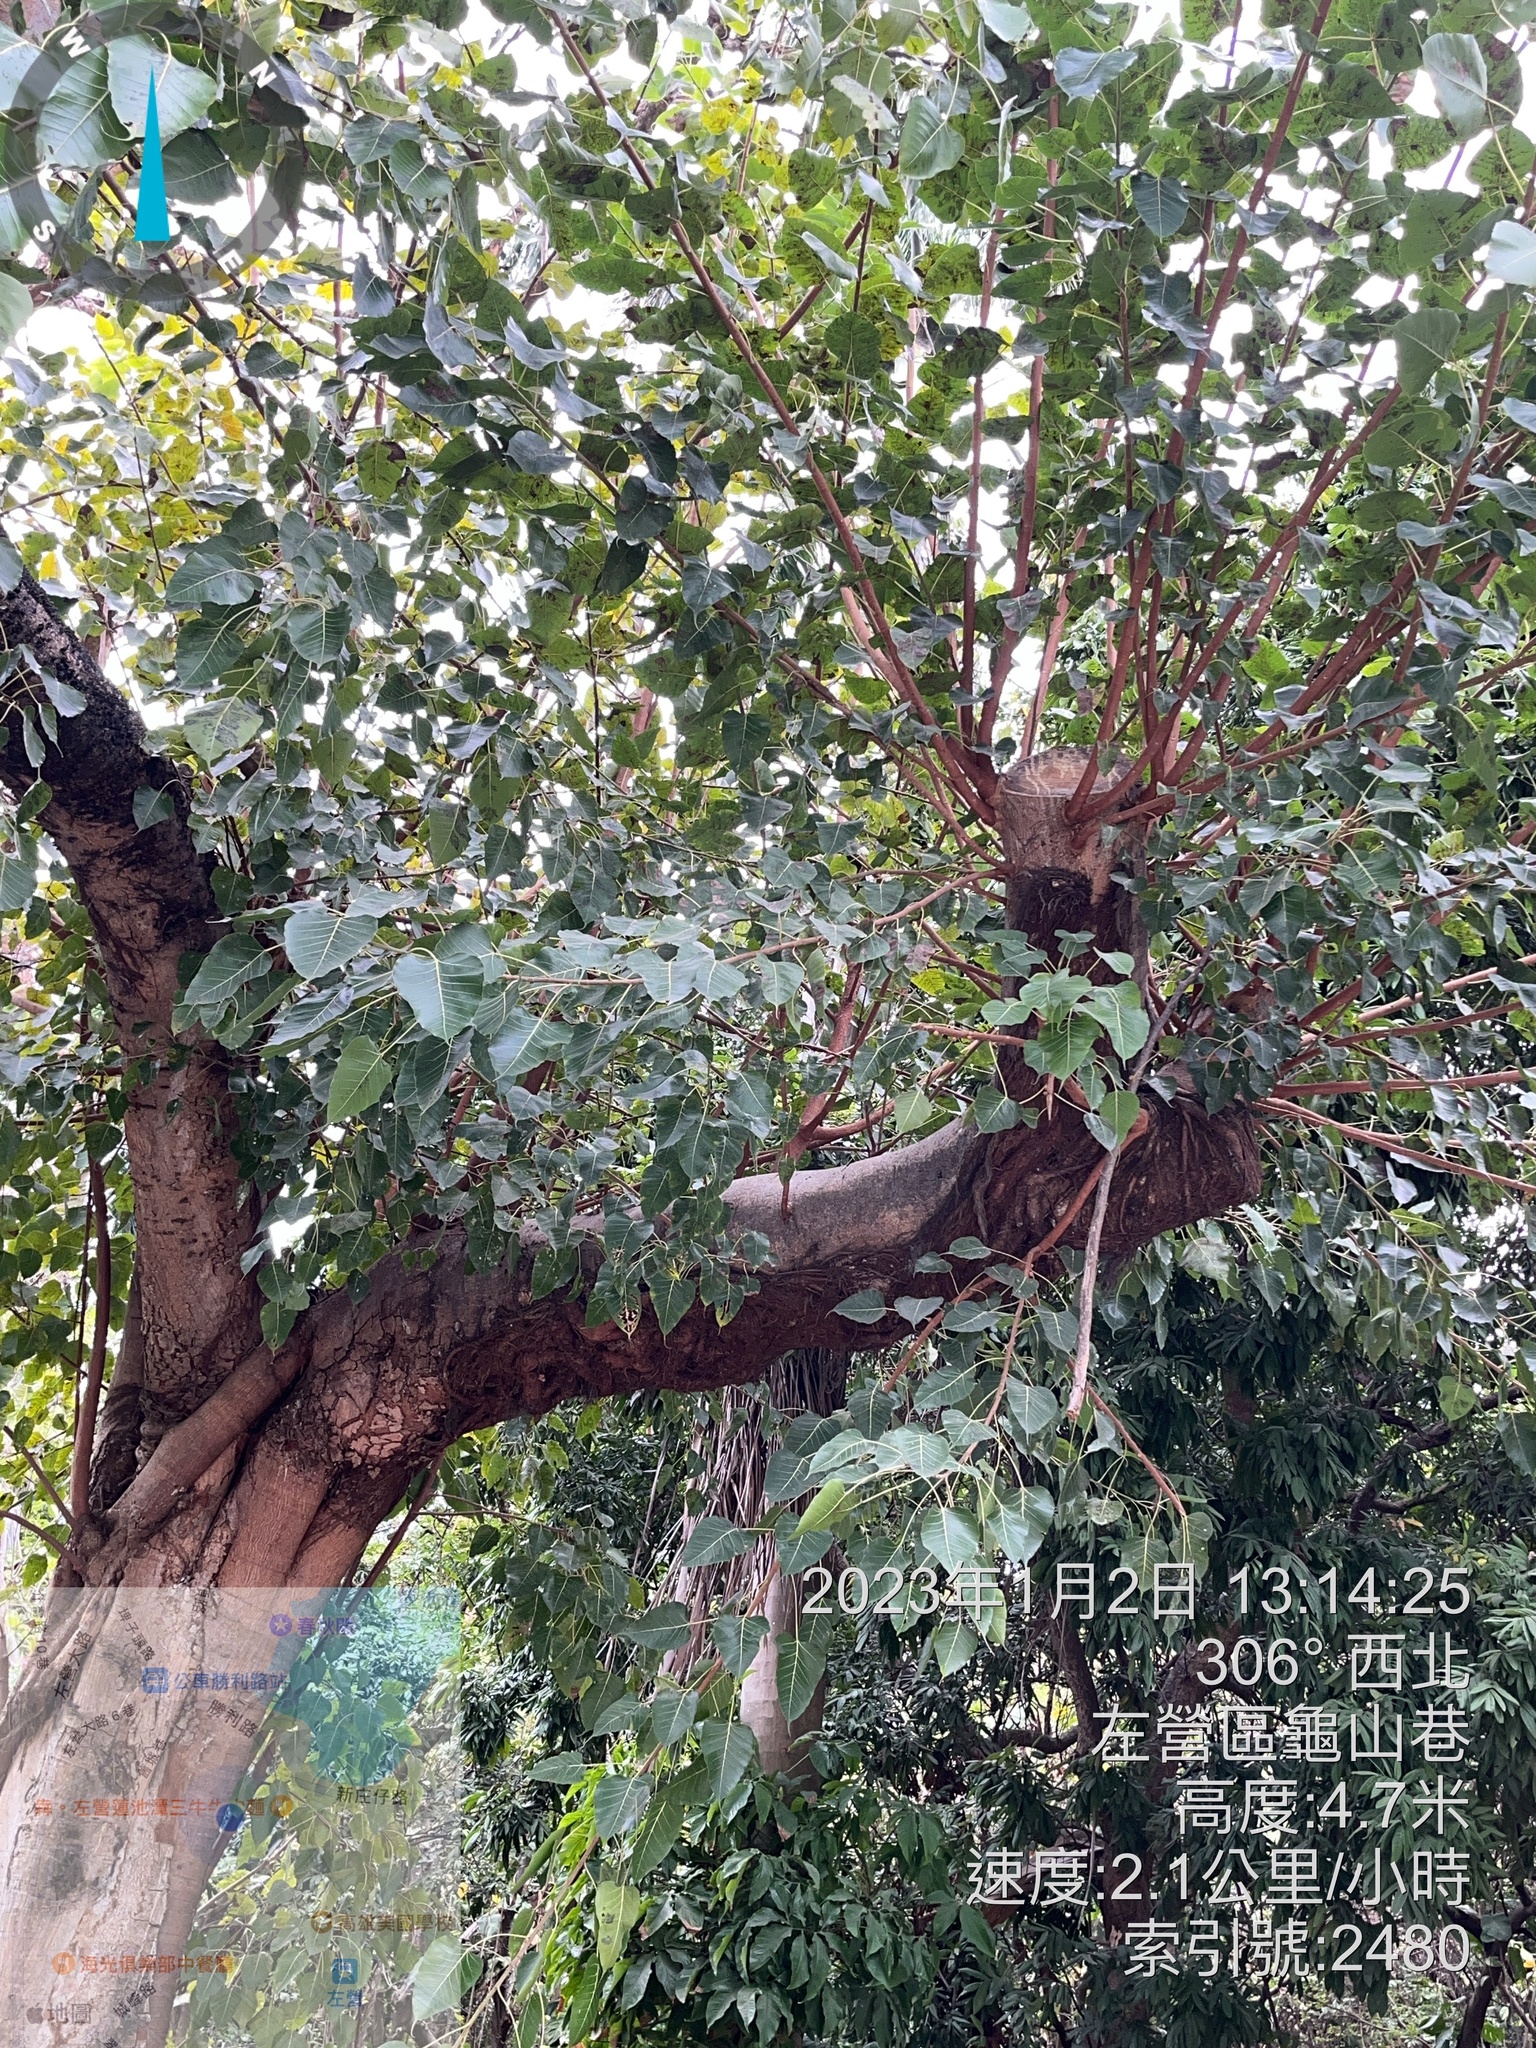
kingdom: Plantae
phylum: Tracheophyta
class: Magnoliopsida
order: Rosales
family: Moraceae
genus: Ficus
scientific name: Ficus religiosa
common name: Bodhi tree
